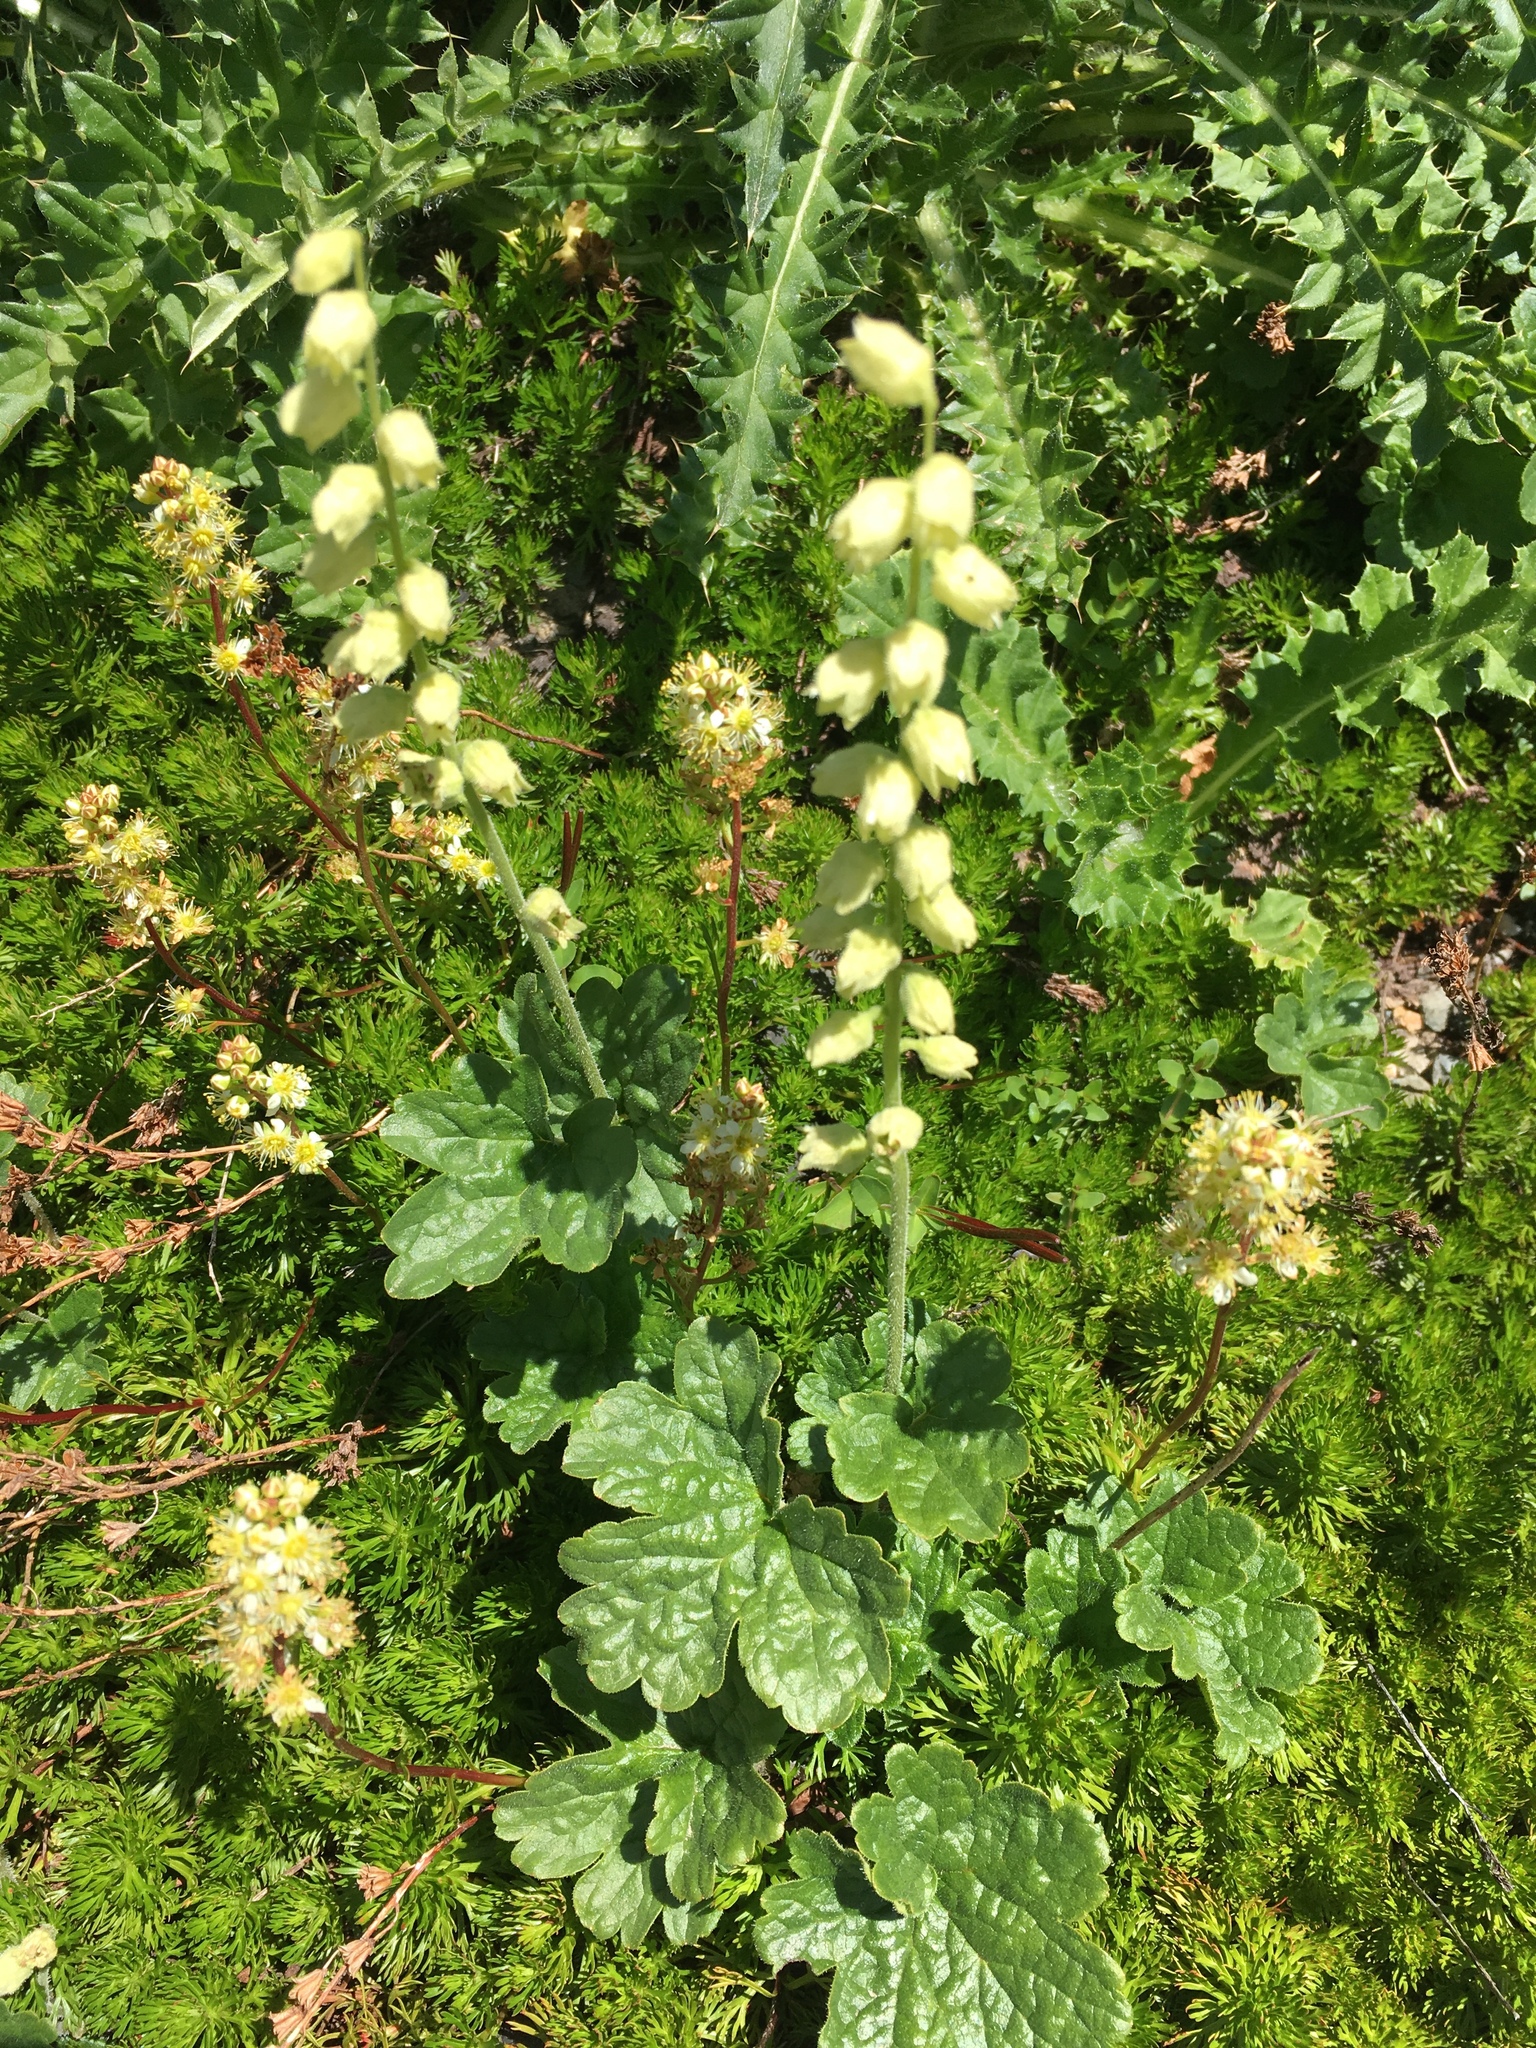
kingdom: Plantae
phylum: Tracheophyta
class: Magnoliopsida
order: Saxifragales
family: Saxifragaceae
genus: Elmera
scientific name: Elmera racemosa
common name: Elmera
